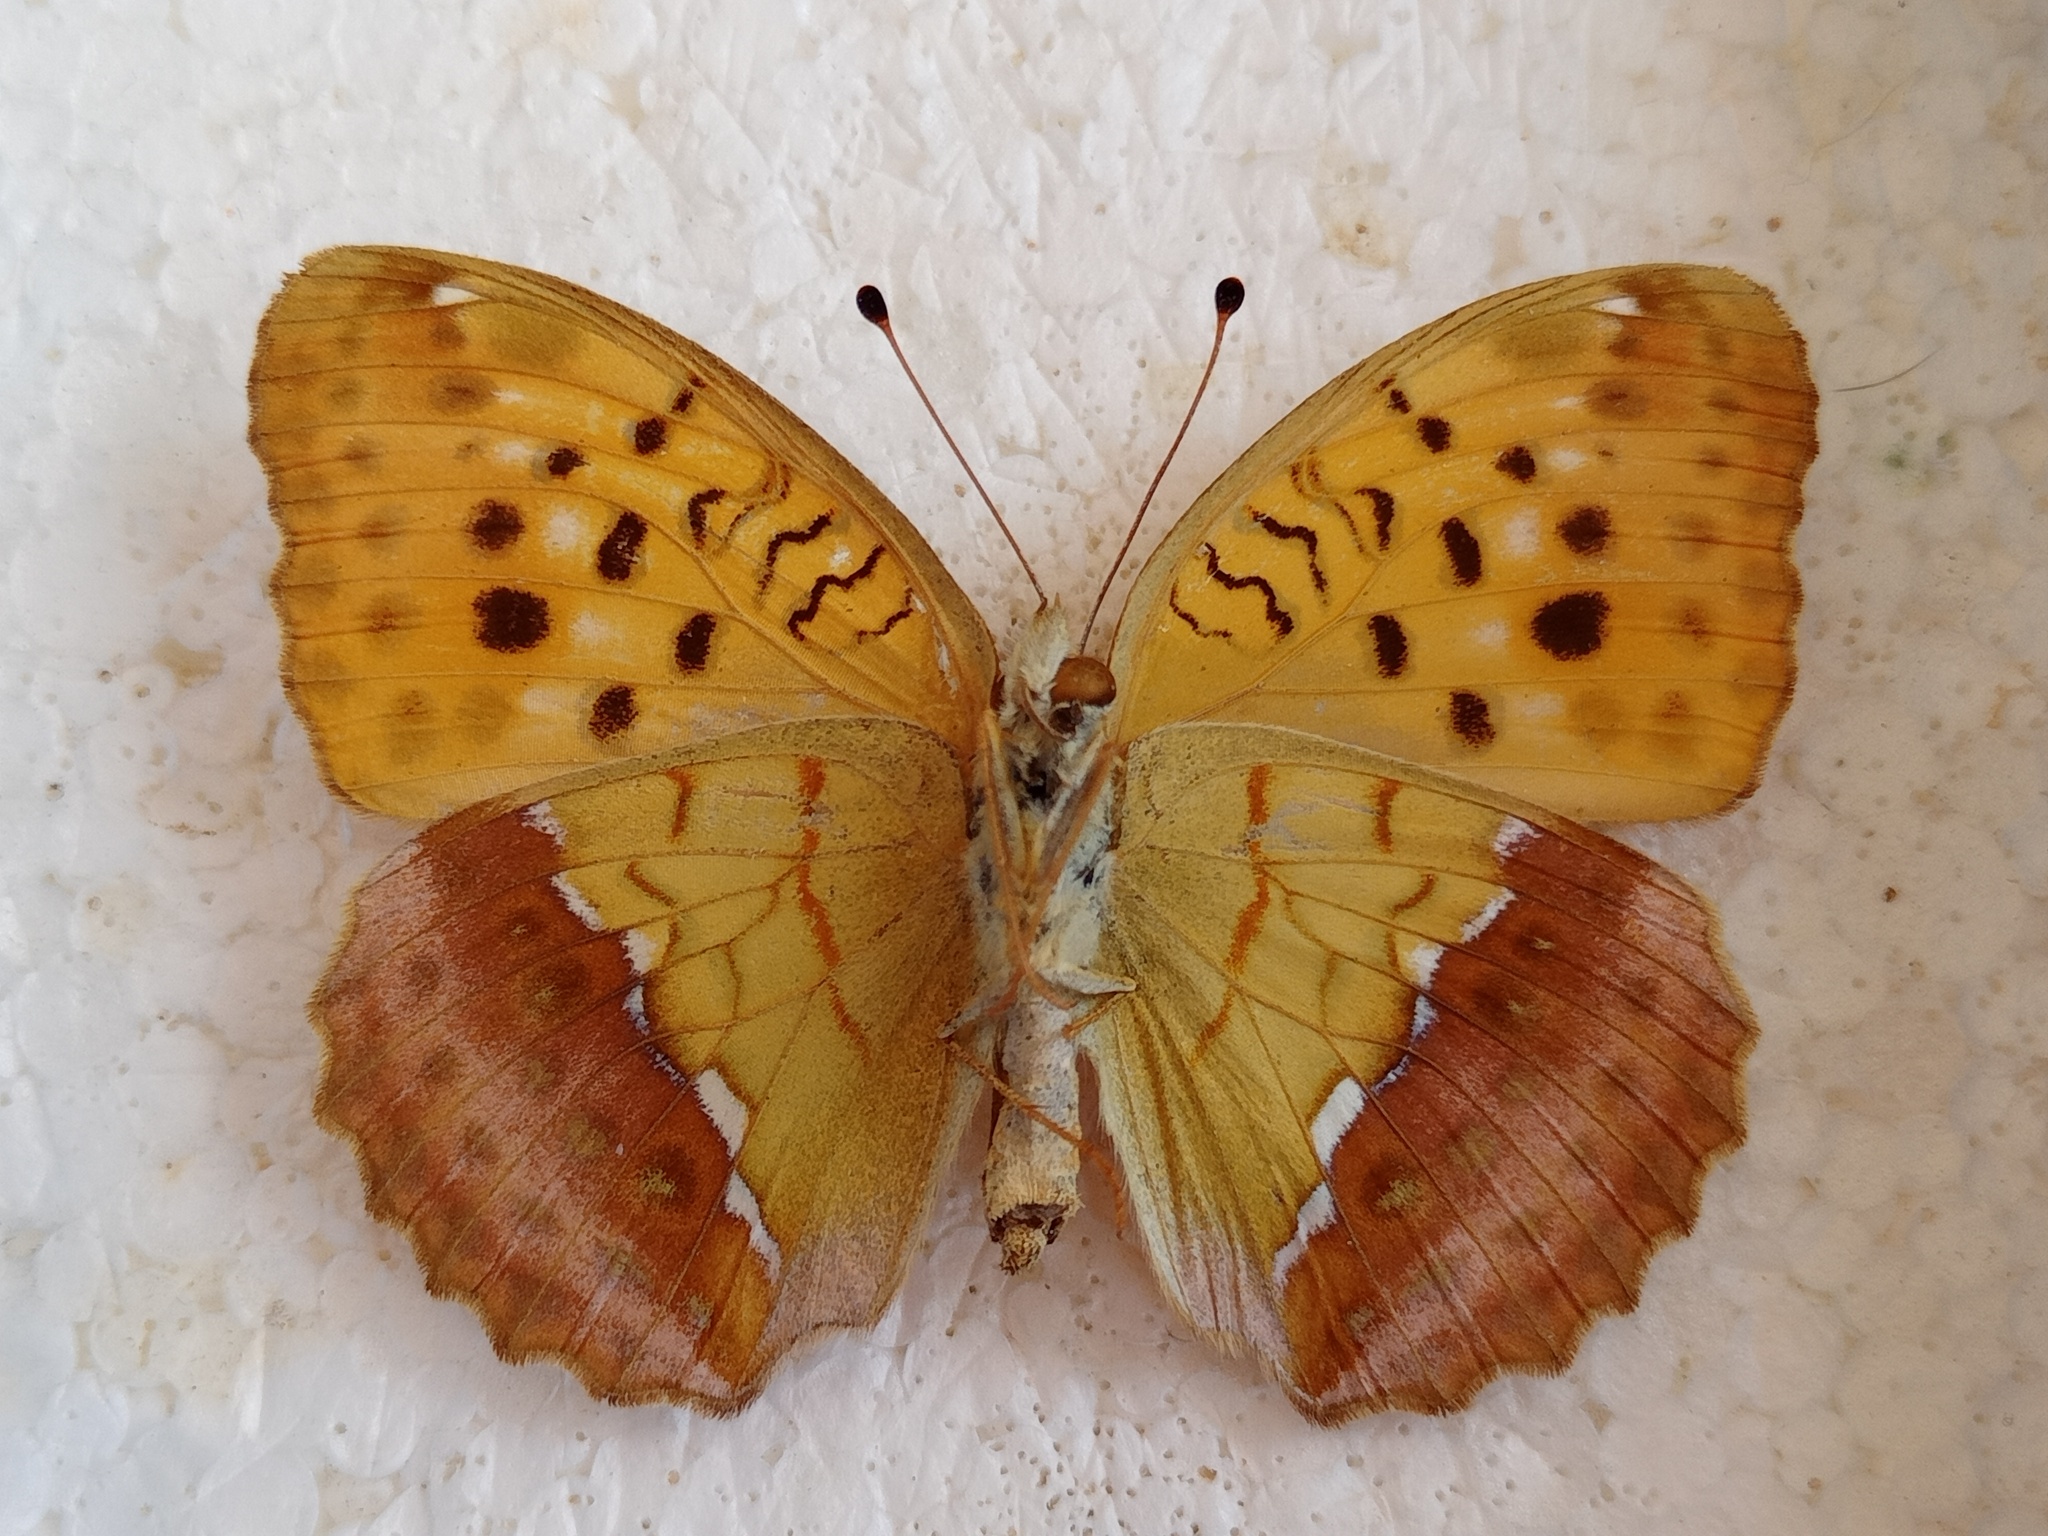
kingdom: Animalia
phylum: Arthropoda
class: Insecta
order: Lepidoptera
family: Nymphalidae
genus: Argyronome
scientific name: Argyronome laodice
